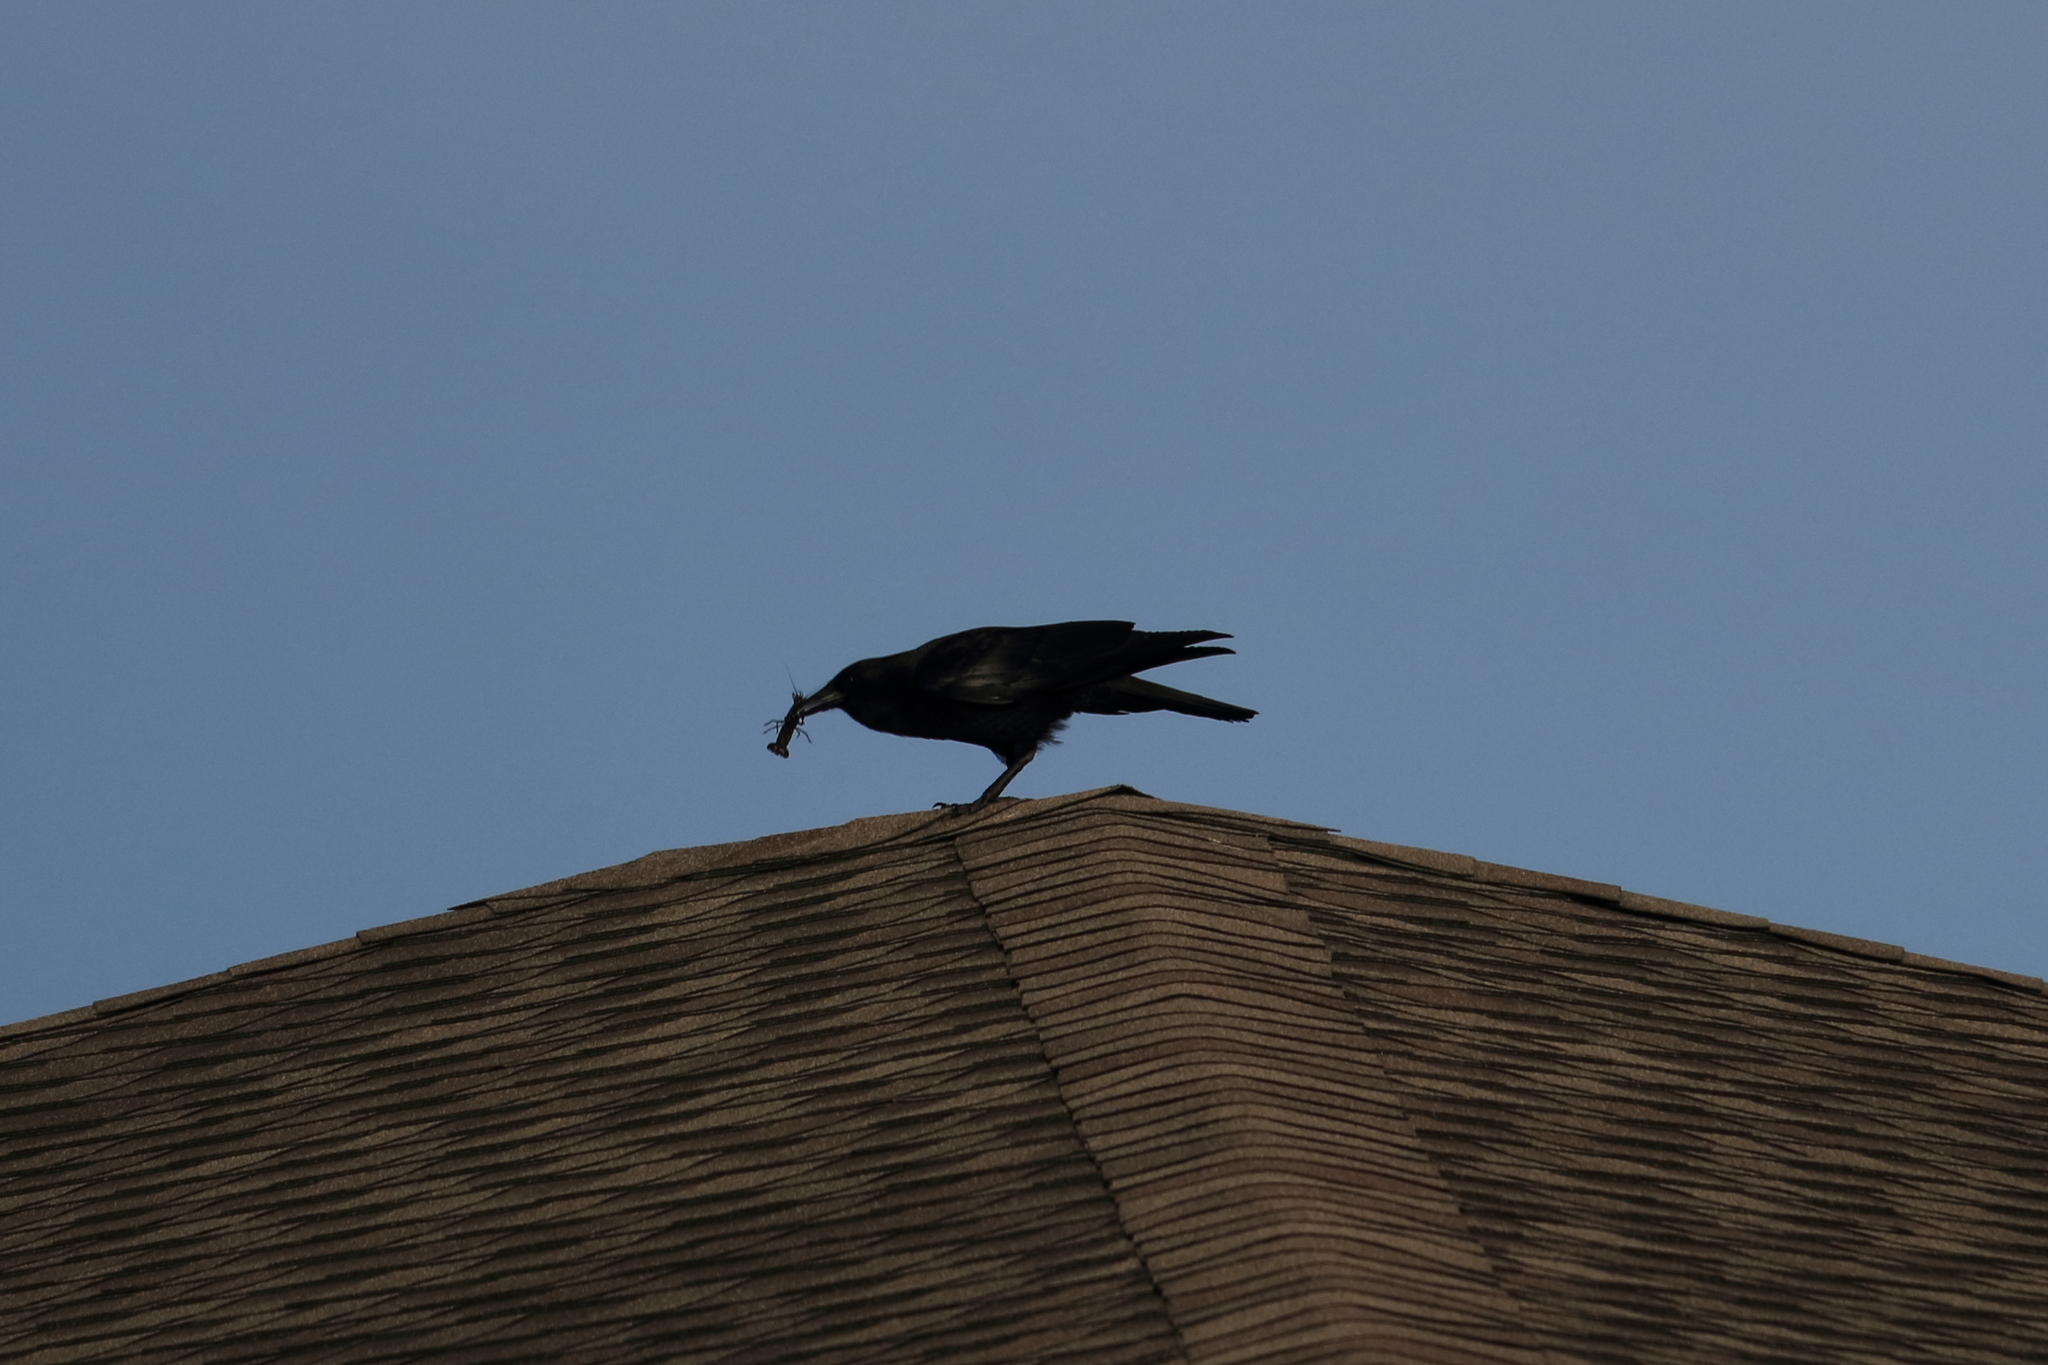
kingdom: Animalia
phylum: Chordata
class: Aves
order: Passeriformes
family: Corvidae
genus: Corvus
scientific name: Corvus brachyrhynchos
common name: American crow
